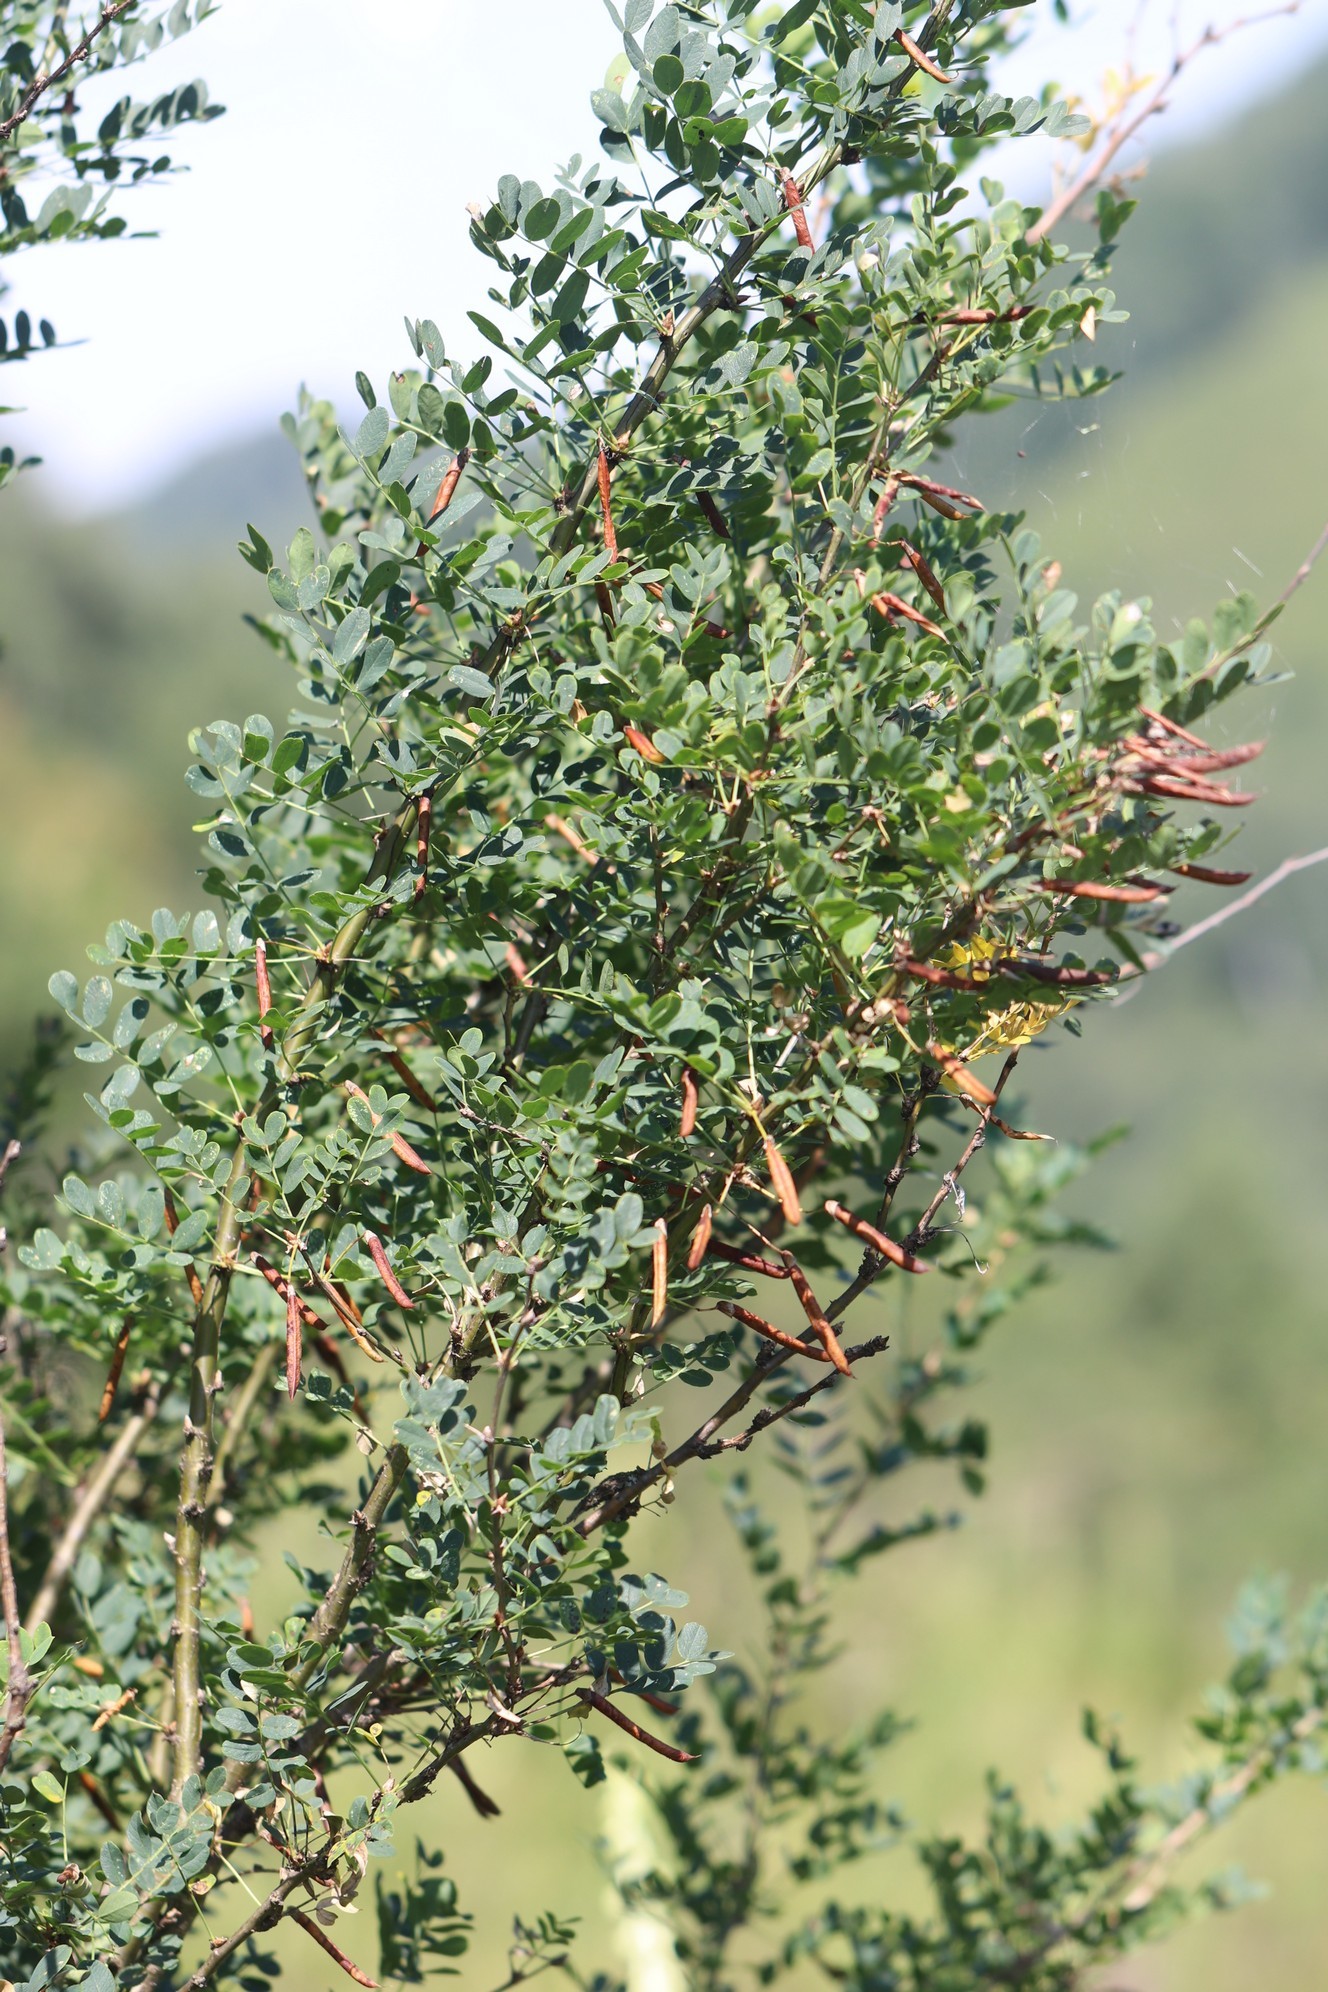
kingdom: Plantae
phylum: Tracheophyta
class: Magnoliopsida
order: Fabales
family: Fabaceae
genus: Caragana
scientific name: Caragana arborescens
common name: Siberian peashrub
